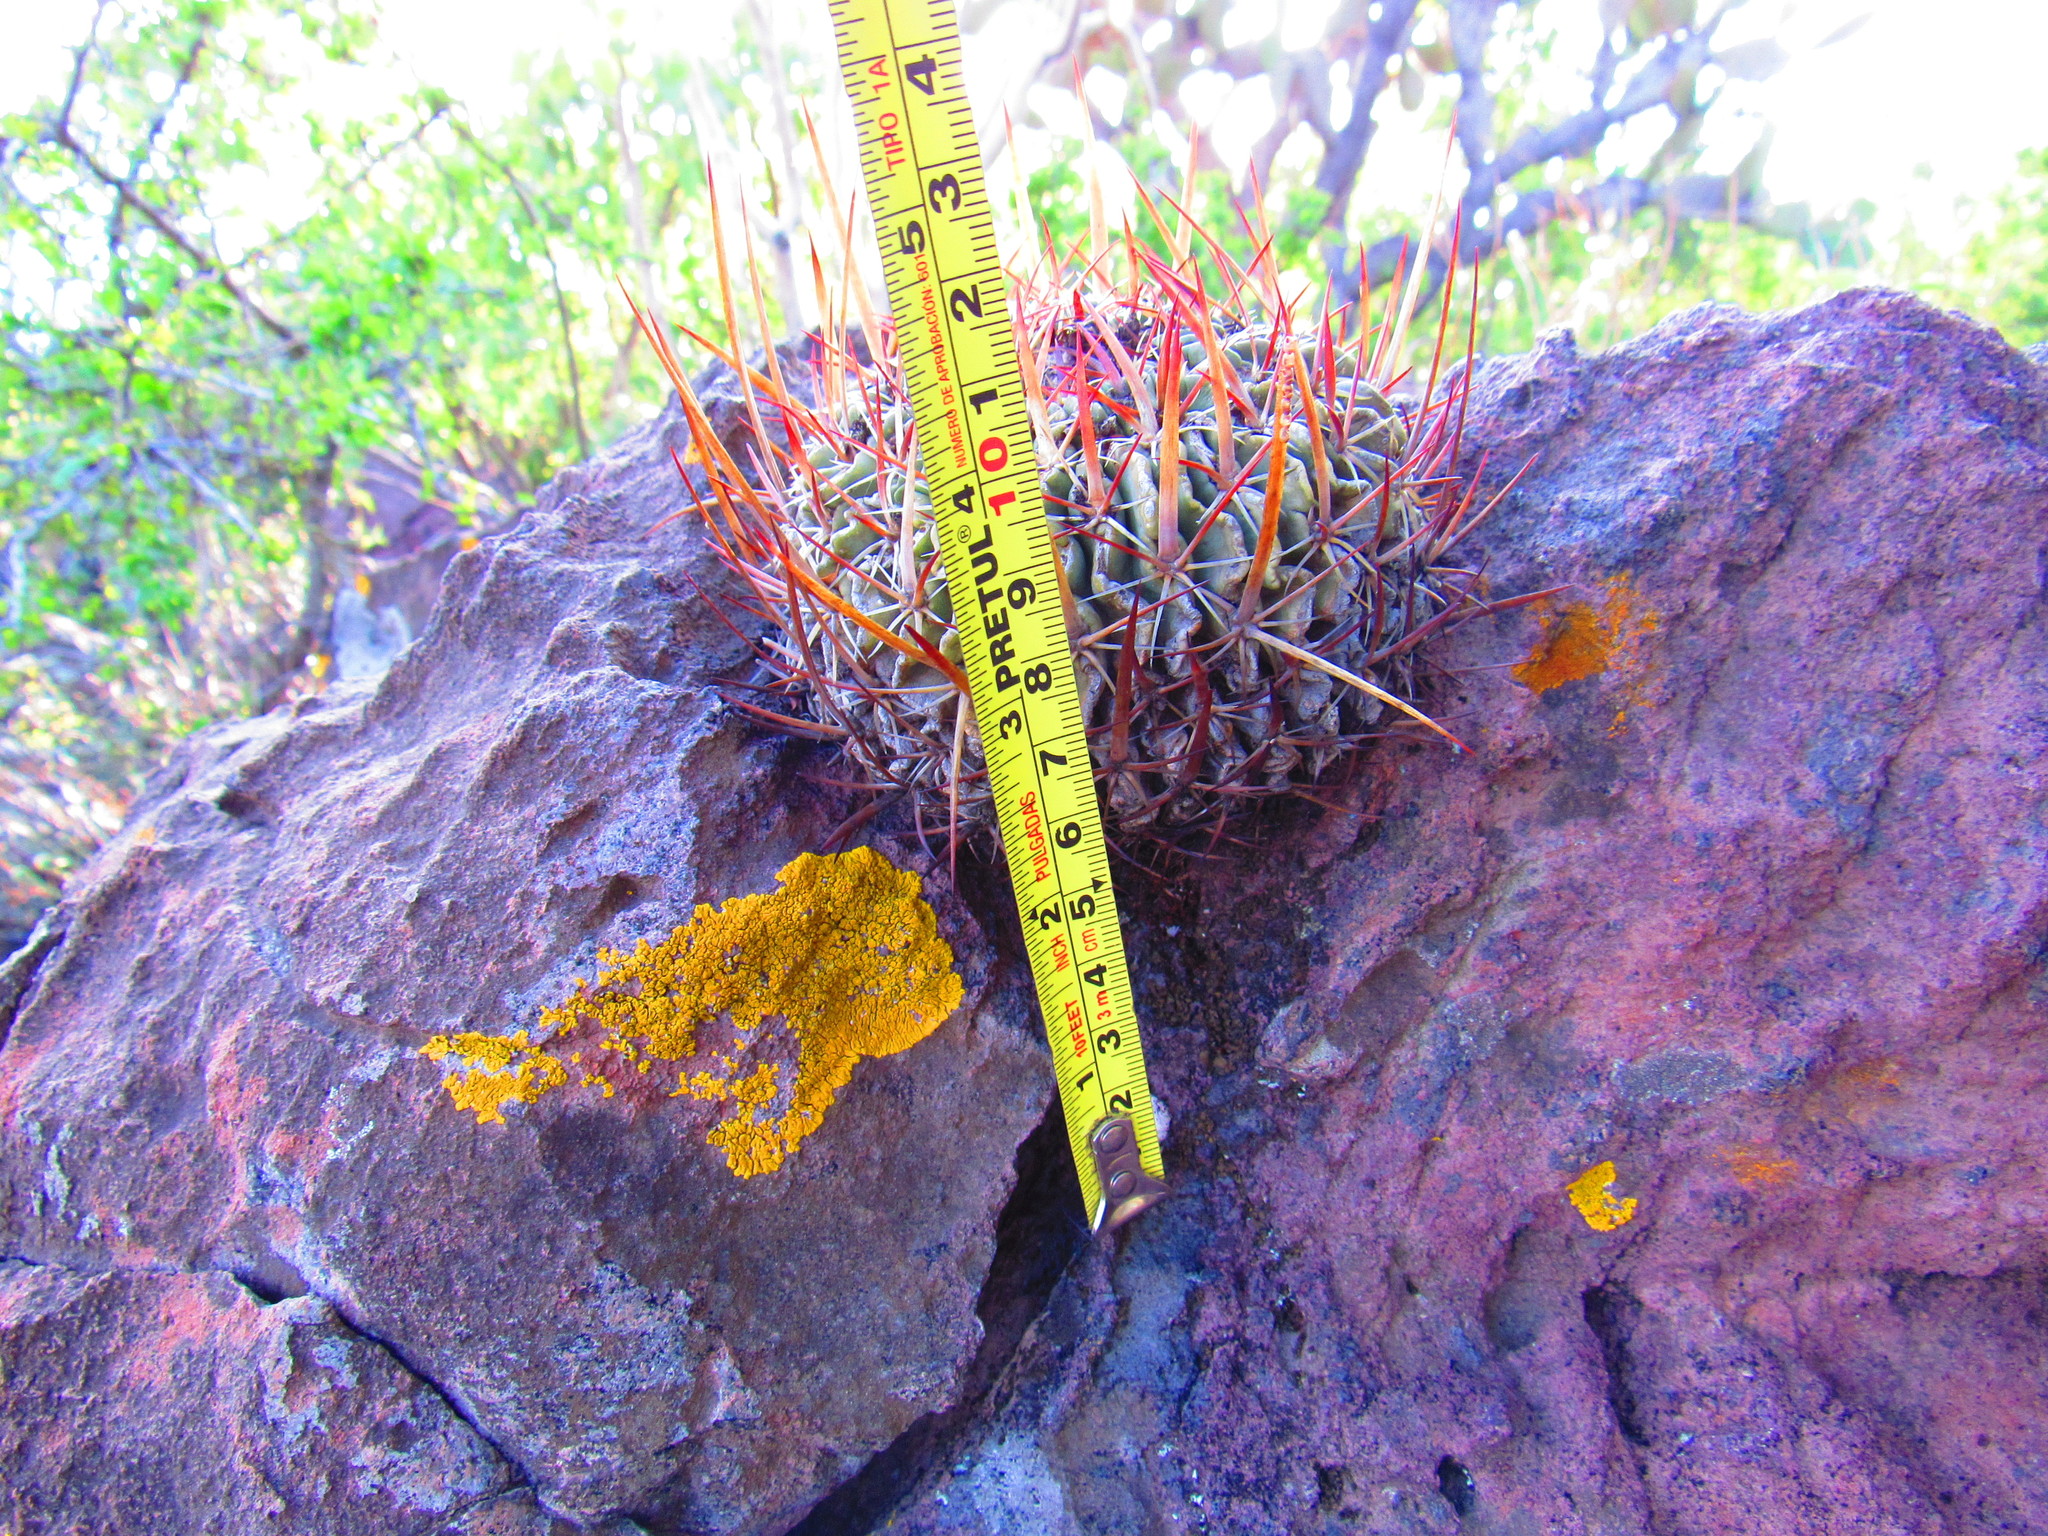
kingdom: Plantae
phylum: Tracheophyta
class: Magnoliopsida
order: Caryophyllales
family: Cactaceae
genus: Stenocactus
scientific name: Stenocactus crispatus
